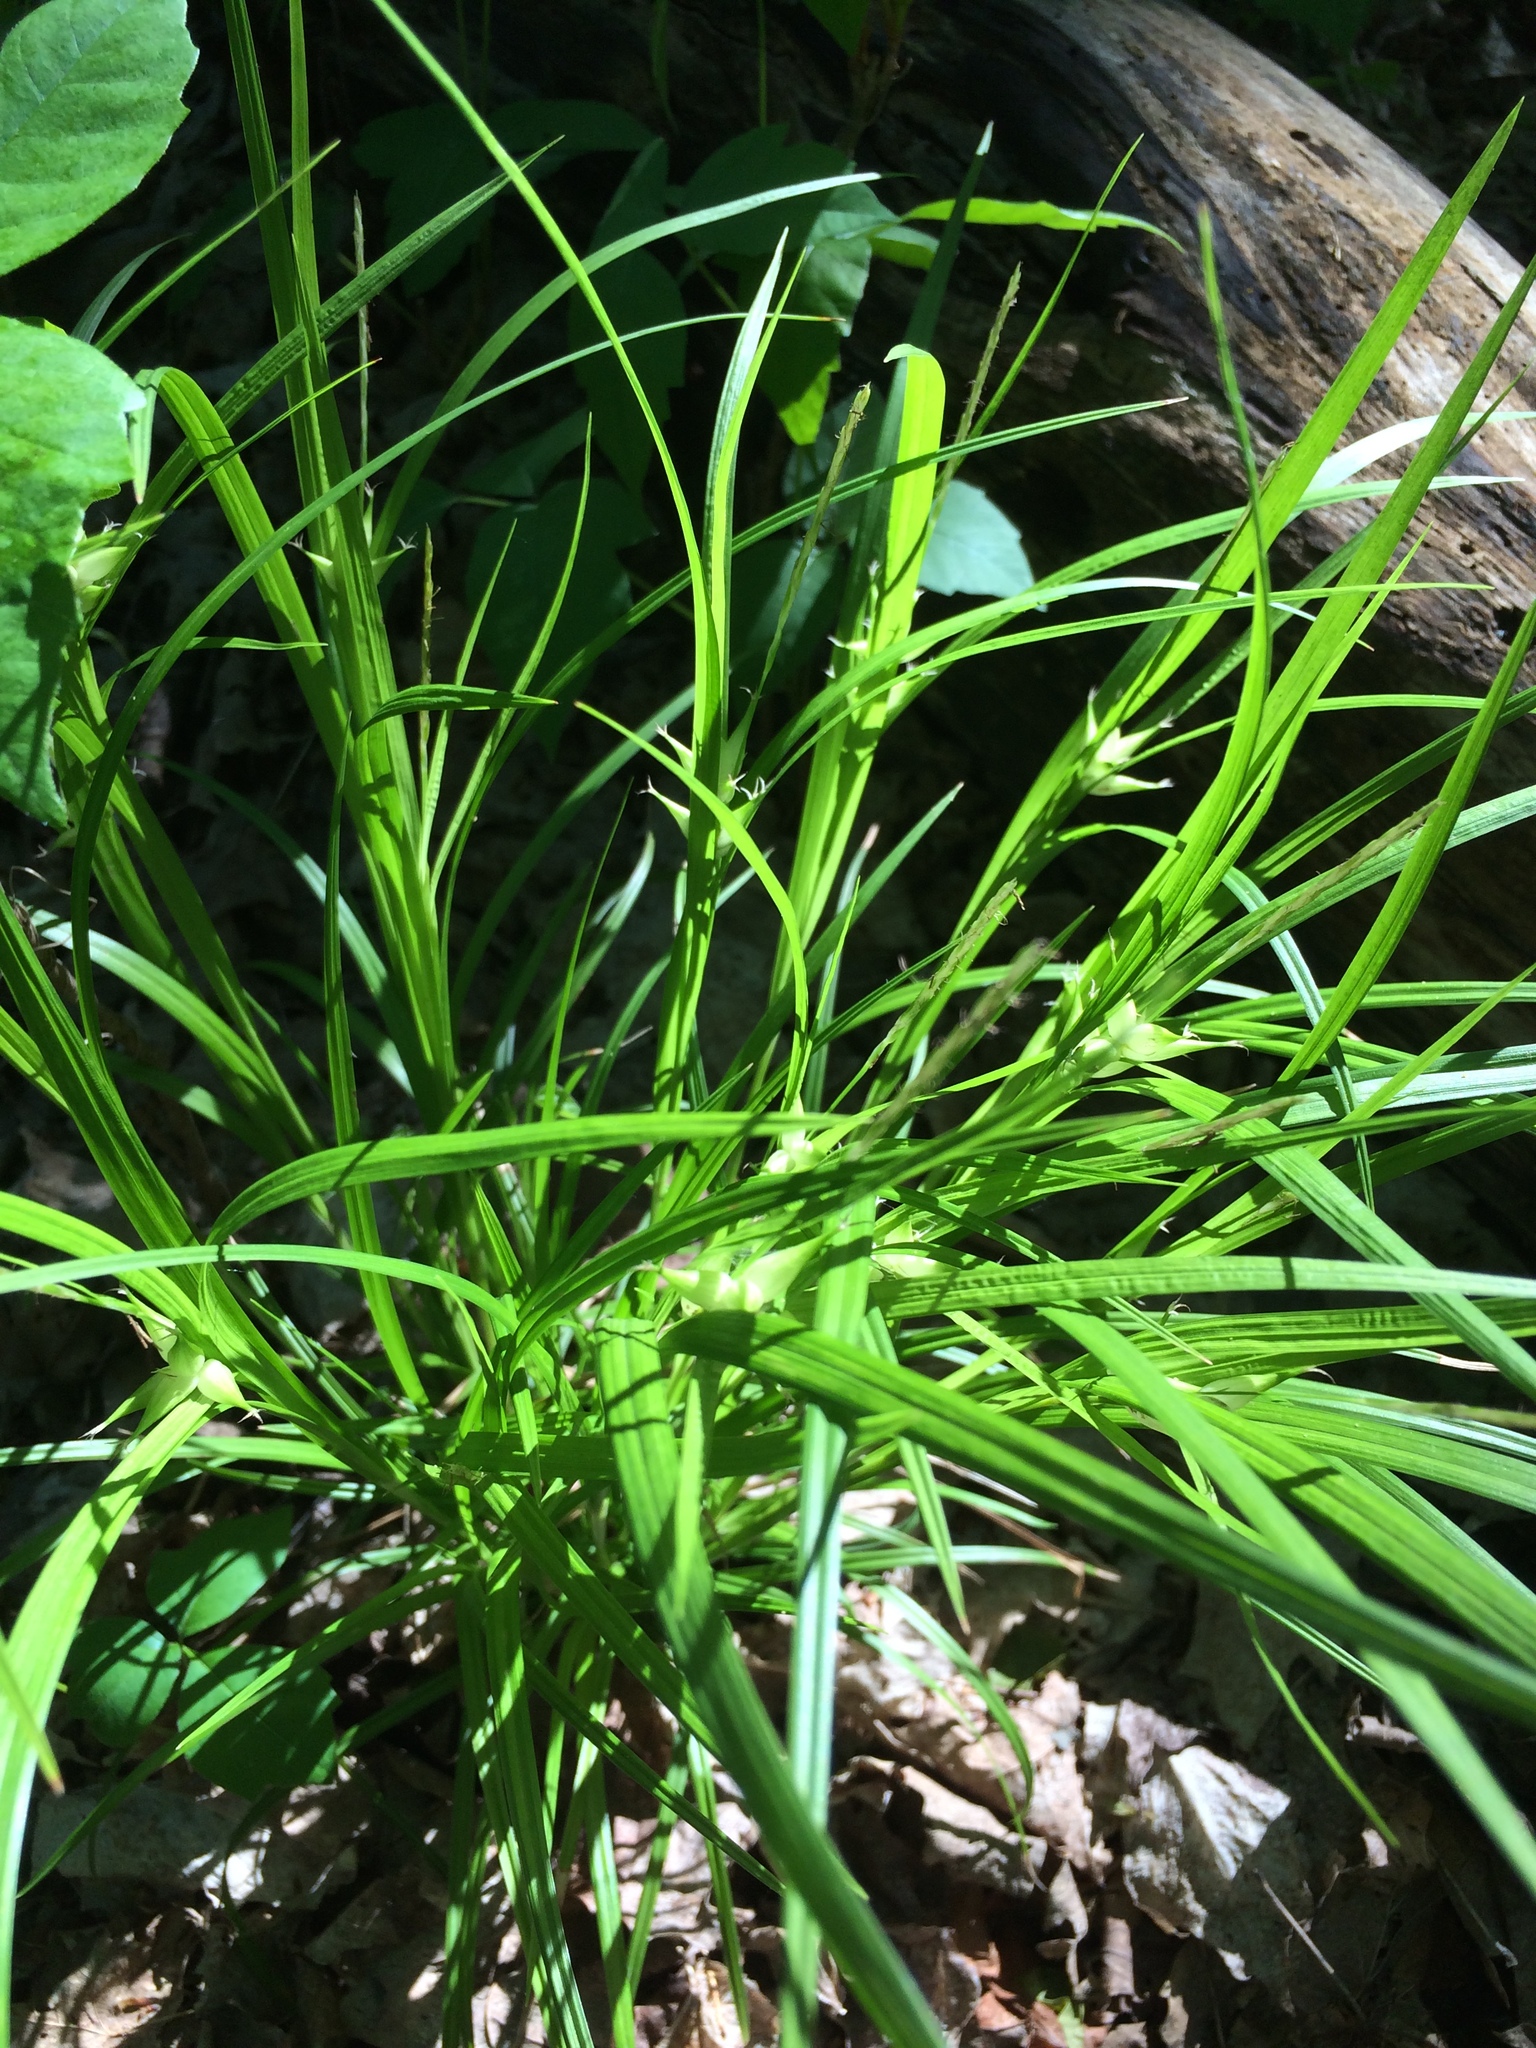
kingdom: Plantae
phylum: Tracheophyta
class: Liliopsida
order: Poales
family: Cyperaceae
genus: Carex
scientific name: Carex intumescens
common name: Greater bladder sedge
